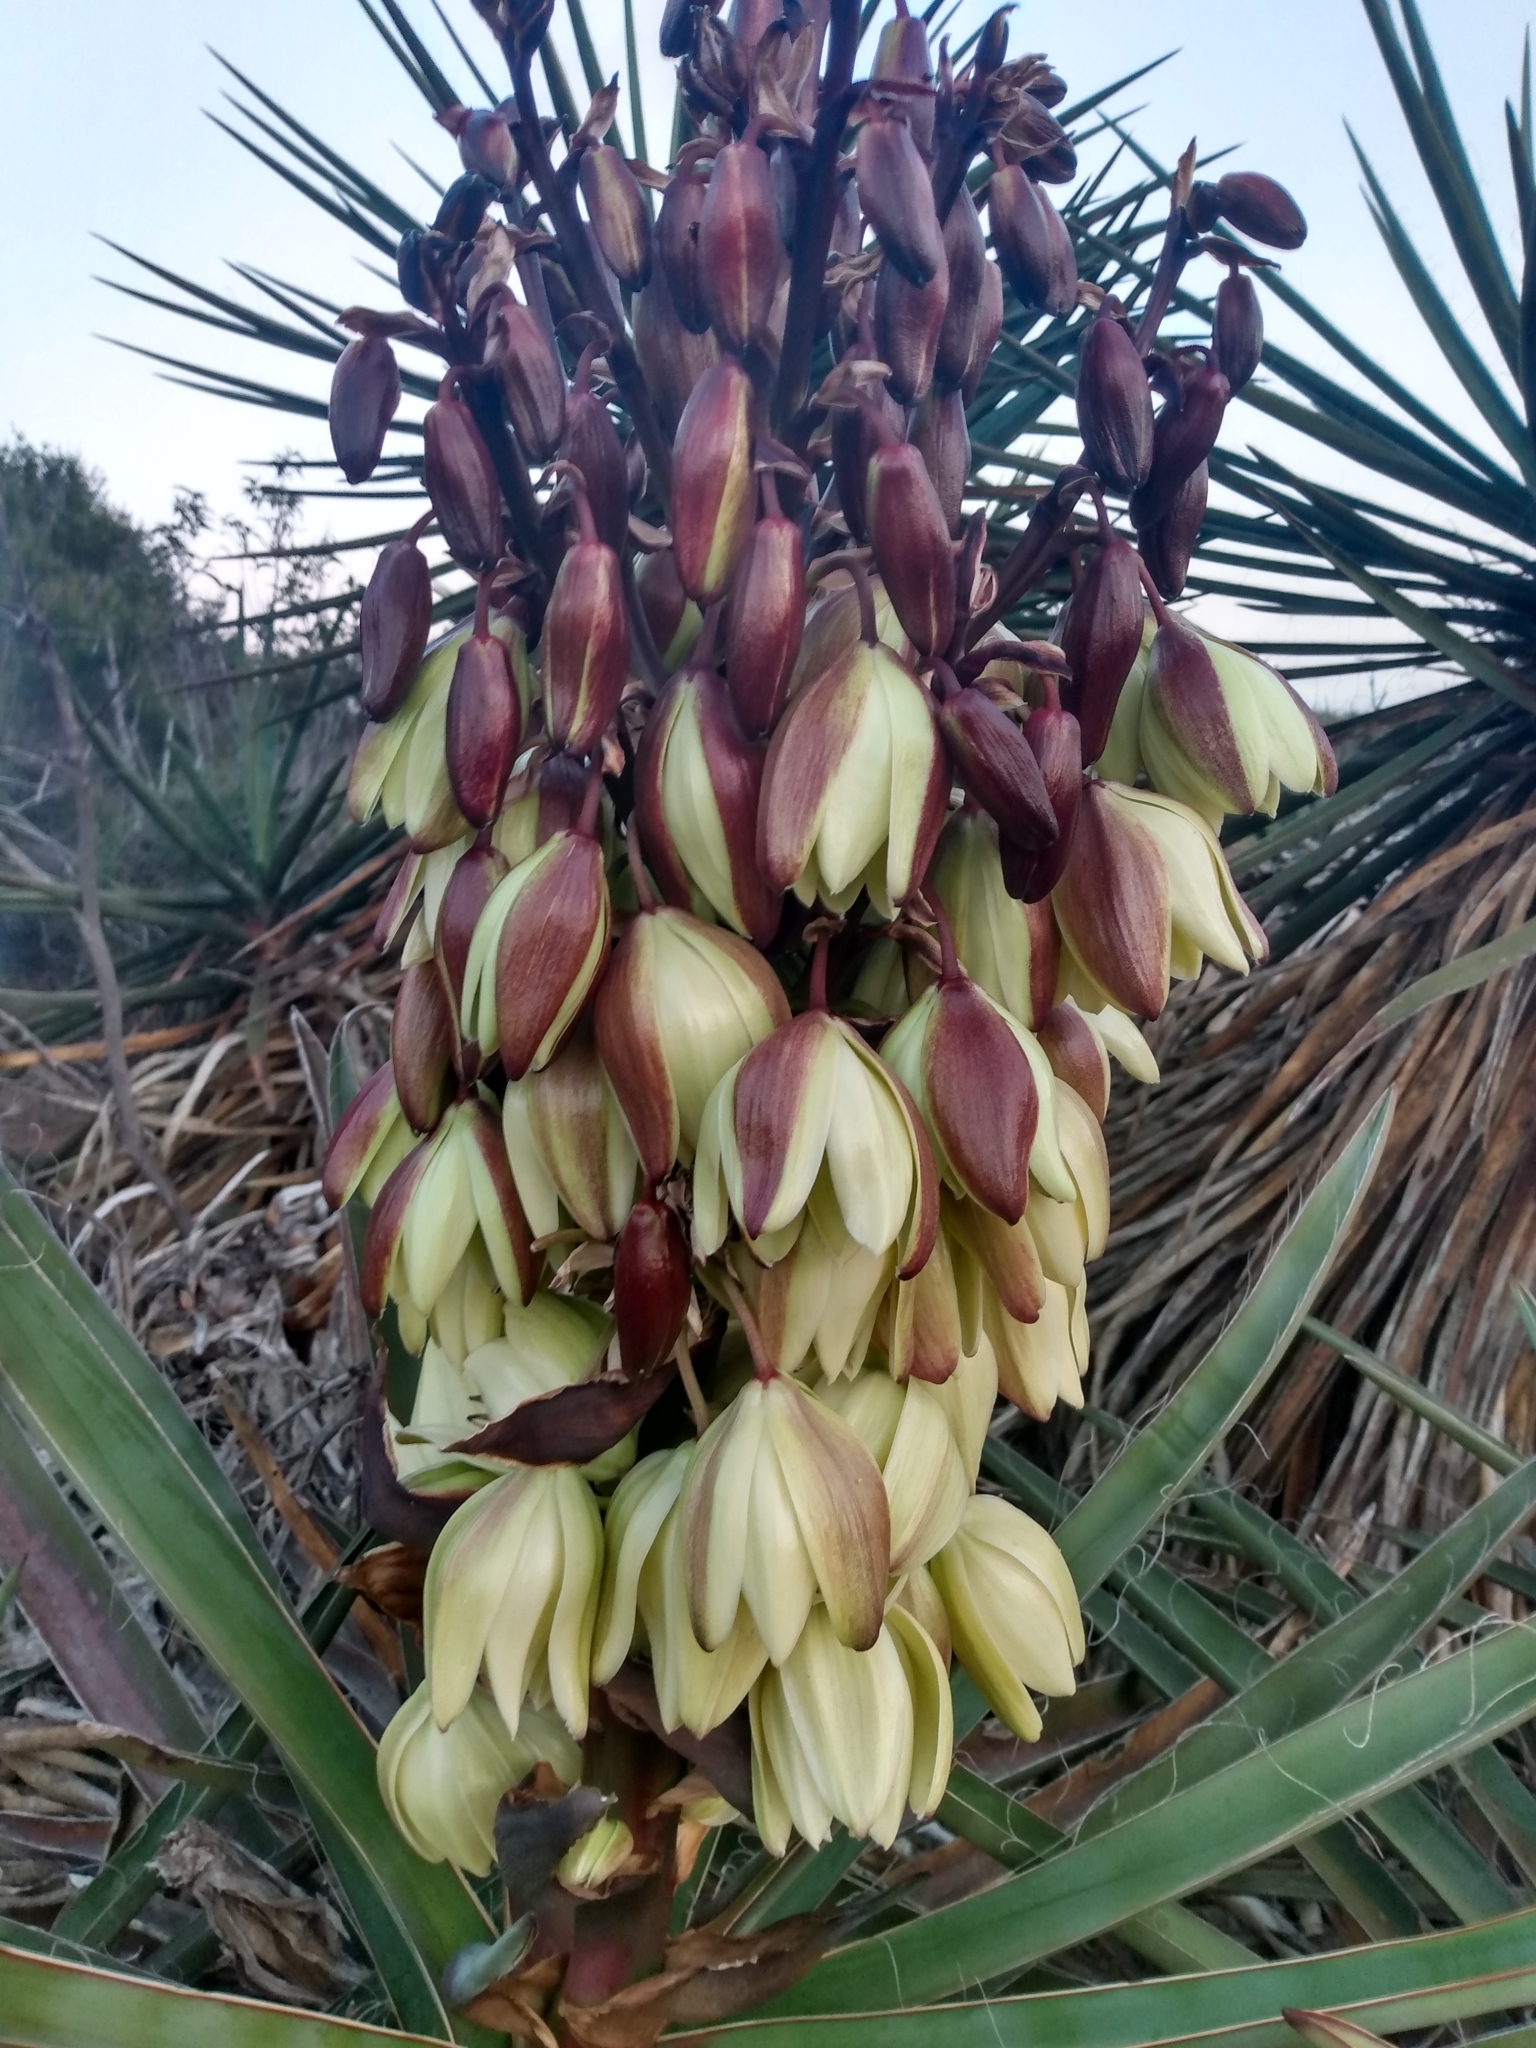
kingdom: Plantae
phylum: Tracheophyta
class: Liliopsida
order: Asparagales
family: Asparagaceae
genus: Yucca
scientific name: Yucca schidigera
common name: Mojave yucca
